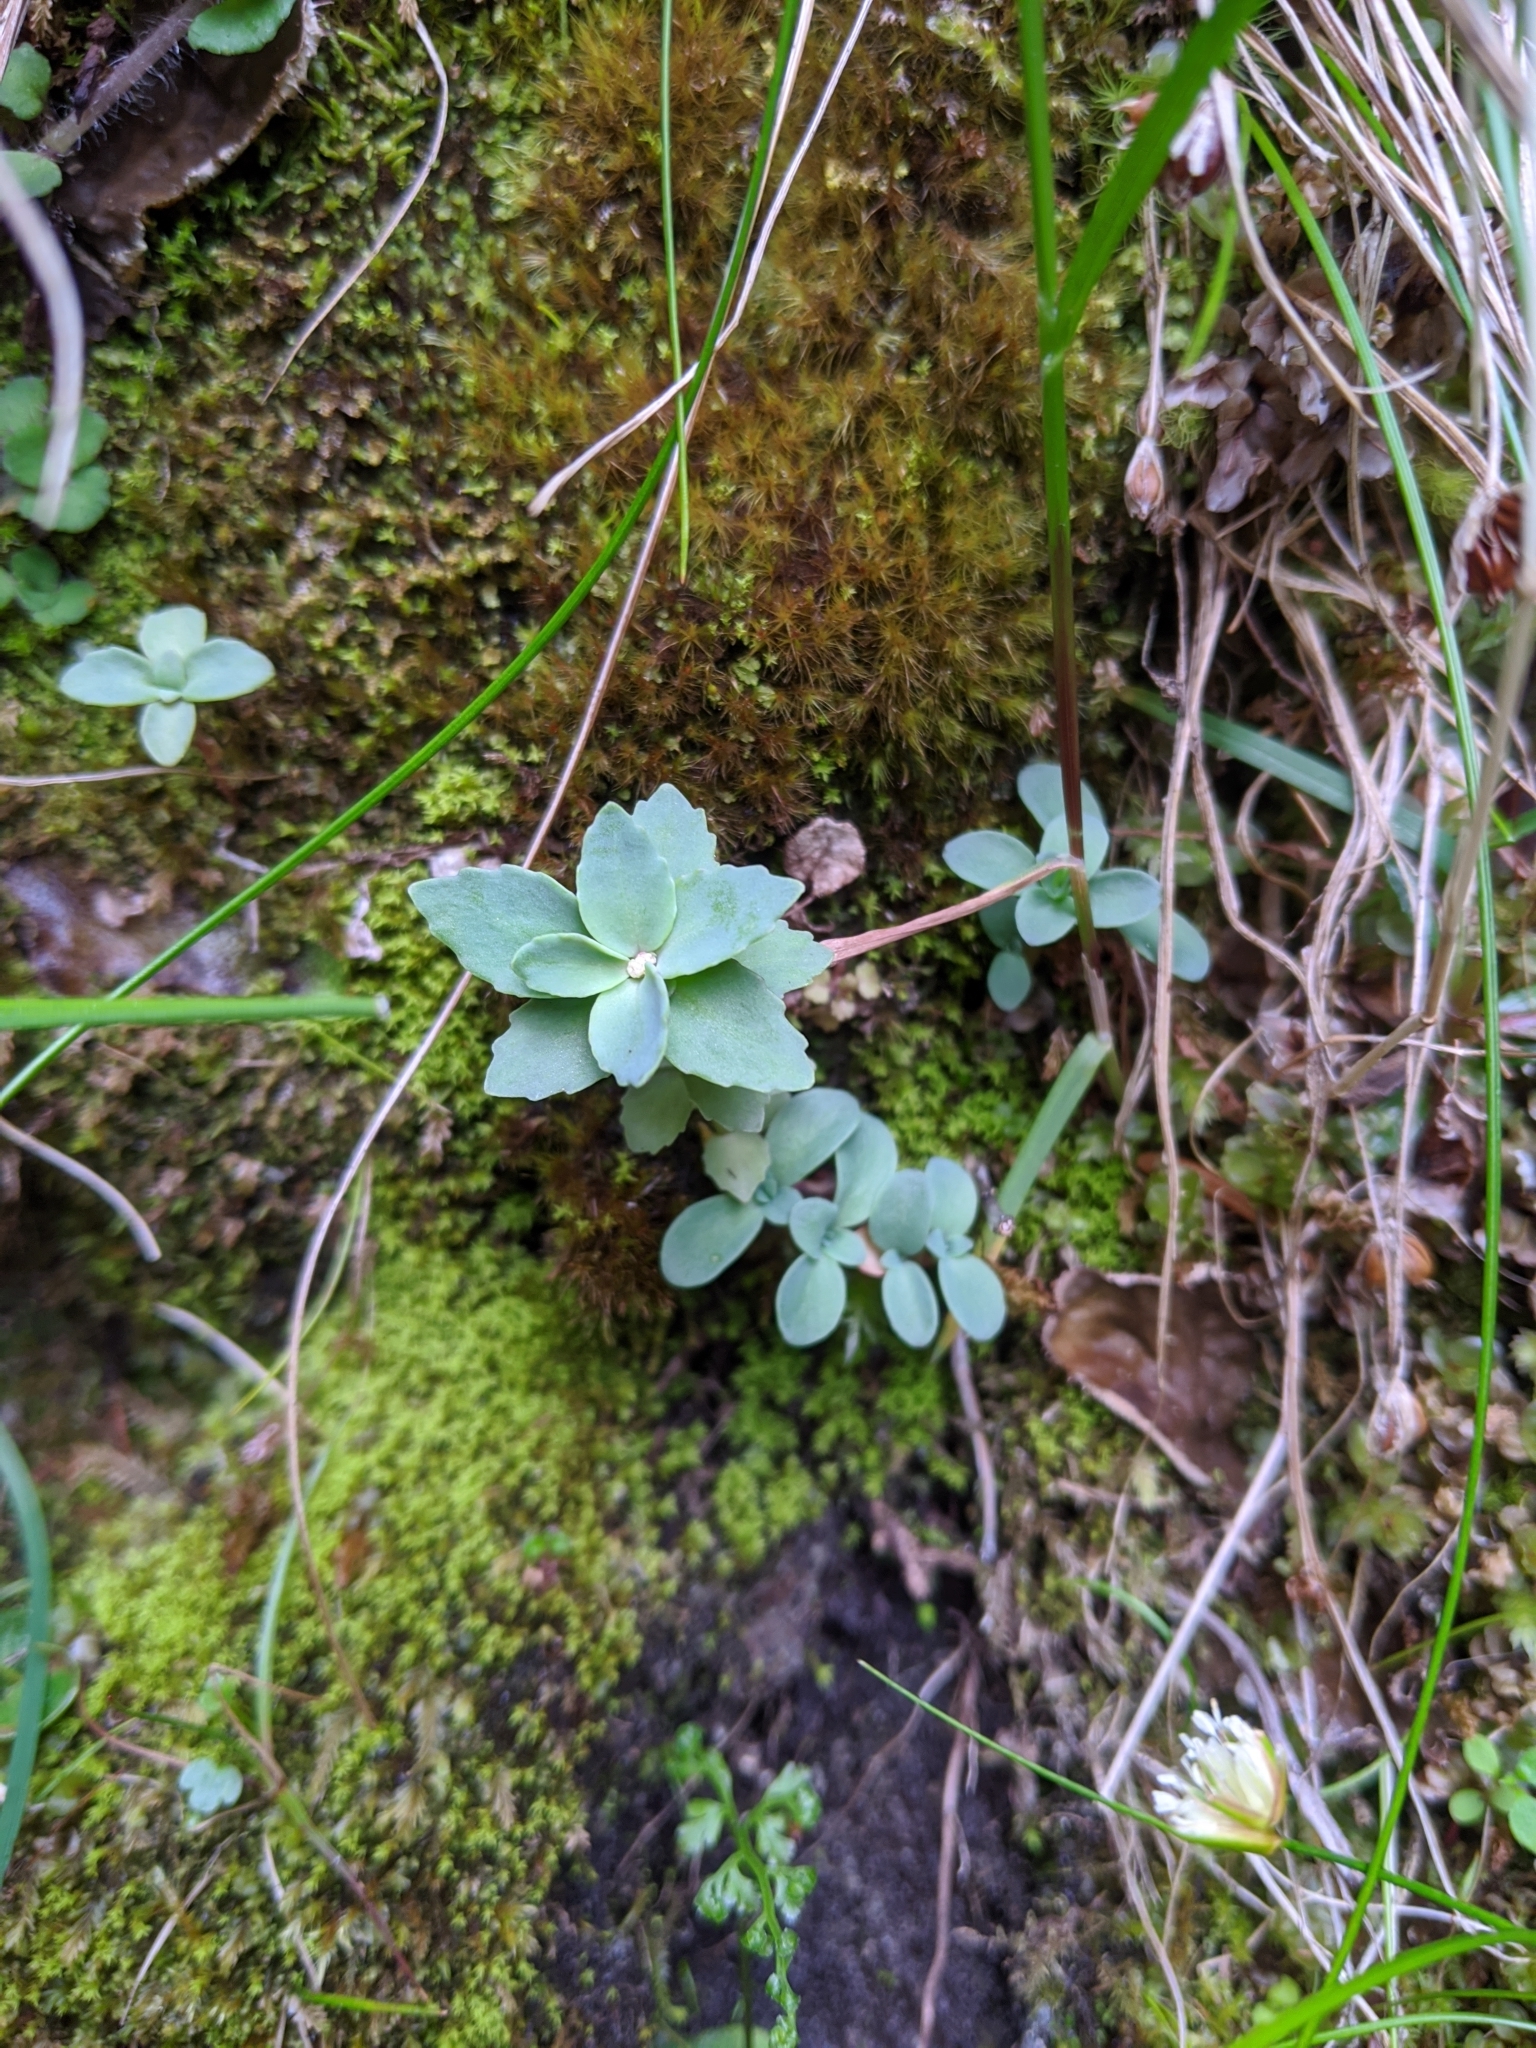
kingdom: Plantae
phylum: Tracheophyta
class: Magnoliopsida
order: Saxifragales
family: Crassulaceae
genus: Phedimus
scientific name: Phedimus subcapitatus
